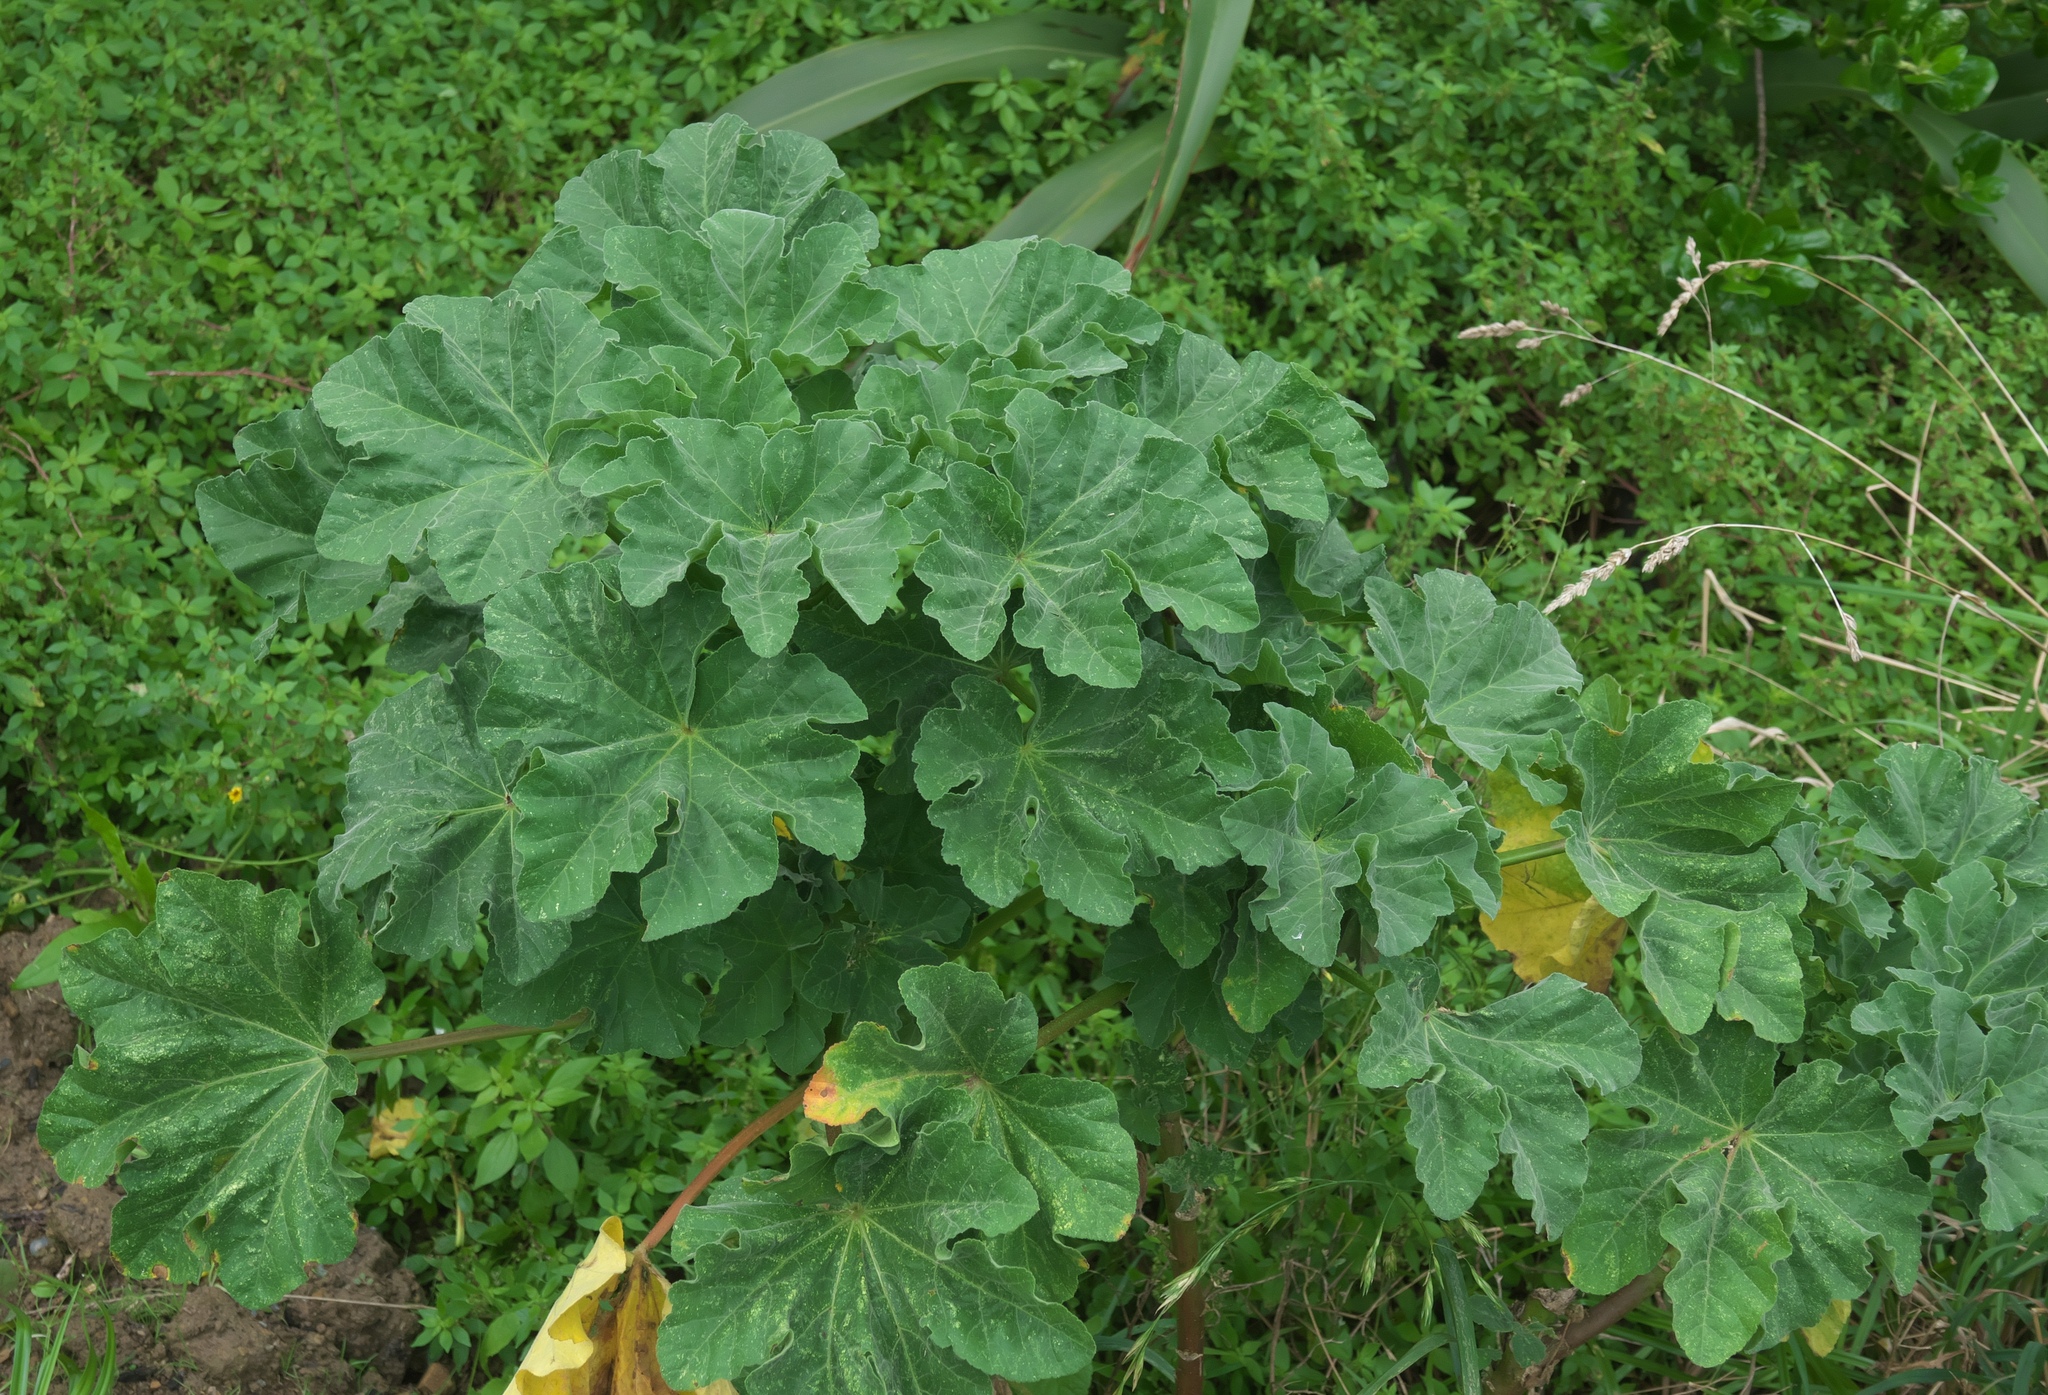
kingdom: Plantae
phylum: Tracheophyta
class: Magnoliopsida
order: Malvales
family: Malvaceae
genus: Malva
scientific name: Malva arborea
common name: Tree mallow
